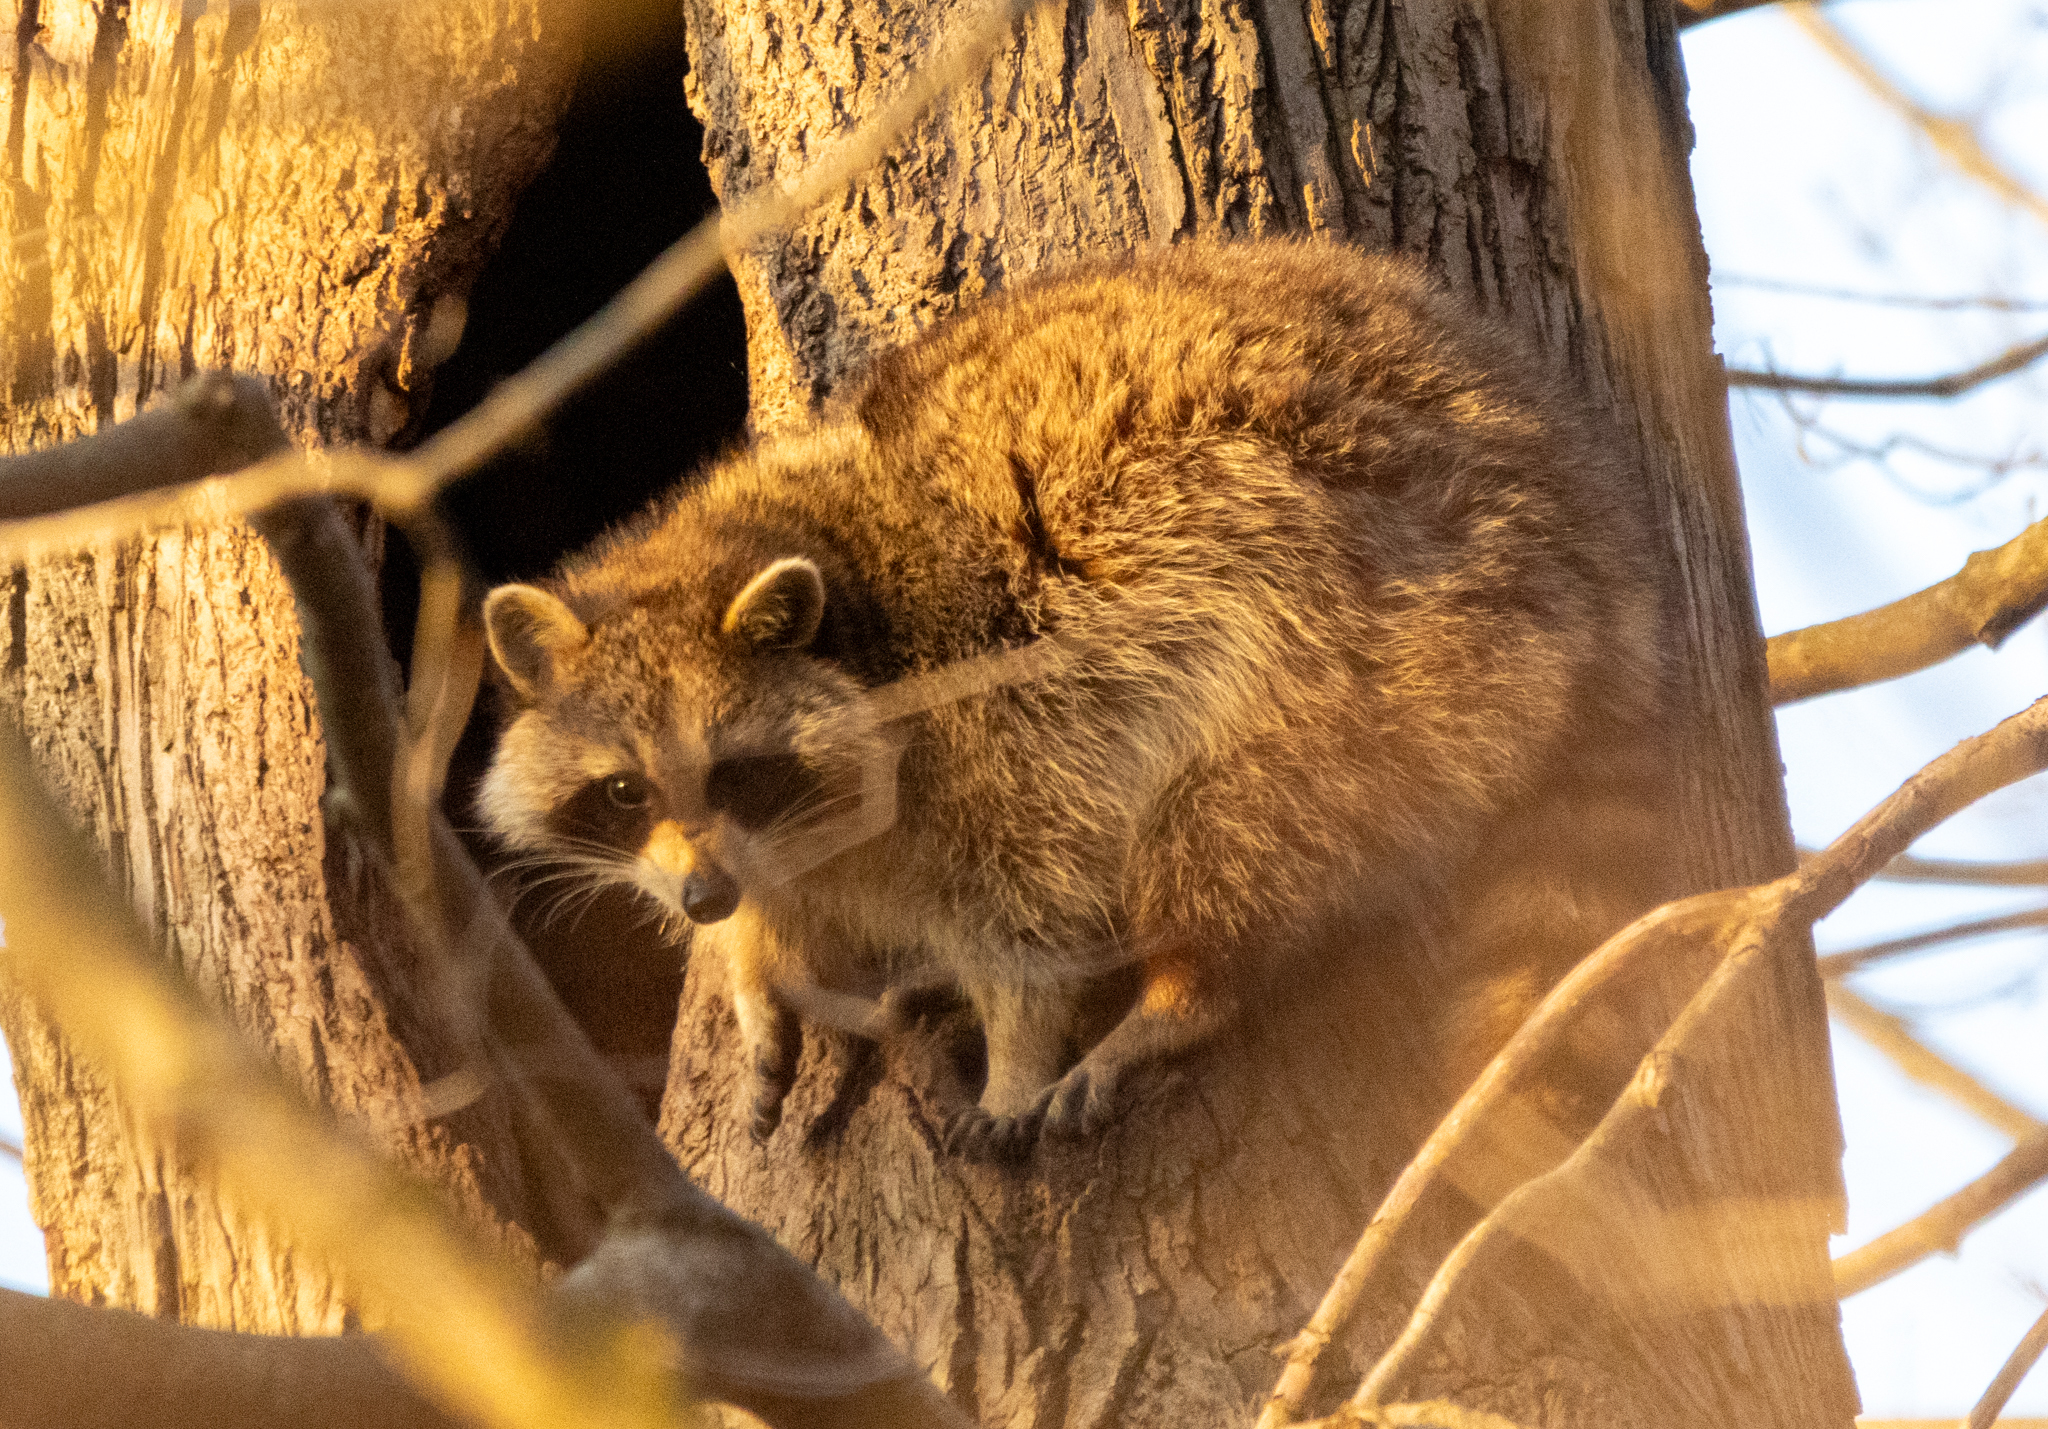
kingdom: Animalia
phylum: Chordata
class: Mammalia
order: Carnivora
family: Procyonidae
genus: Procyon
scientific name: Procyon lotor
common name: Raccoon
